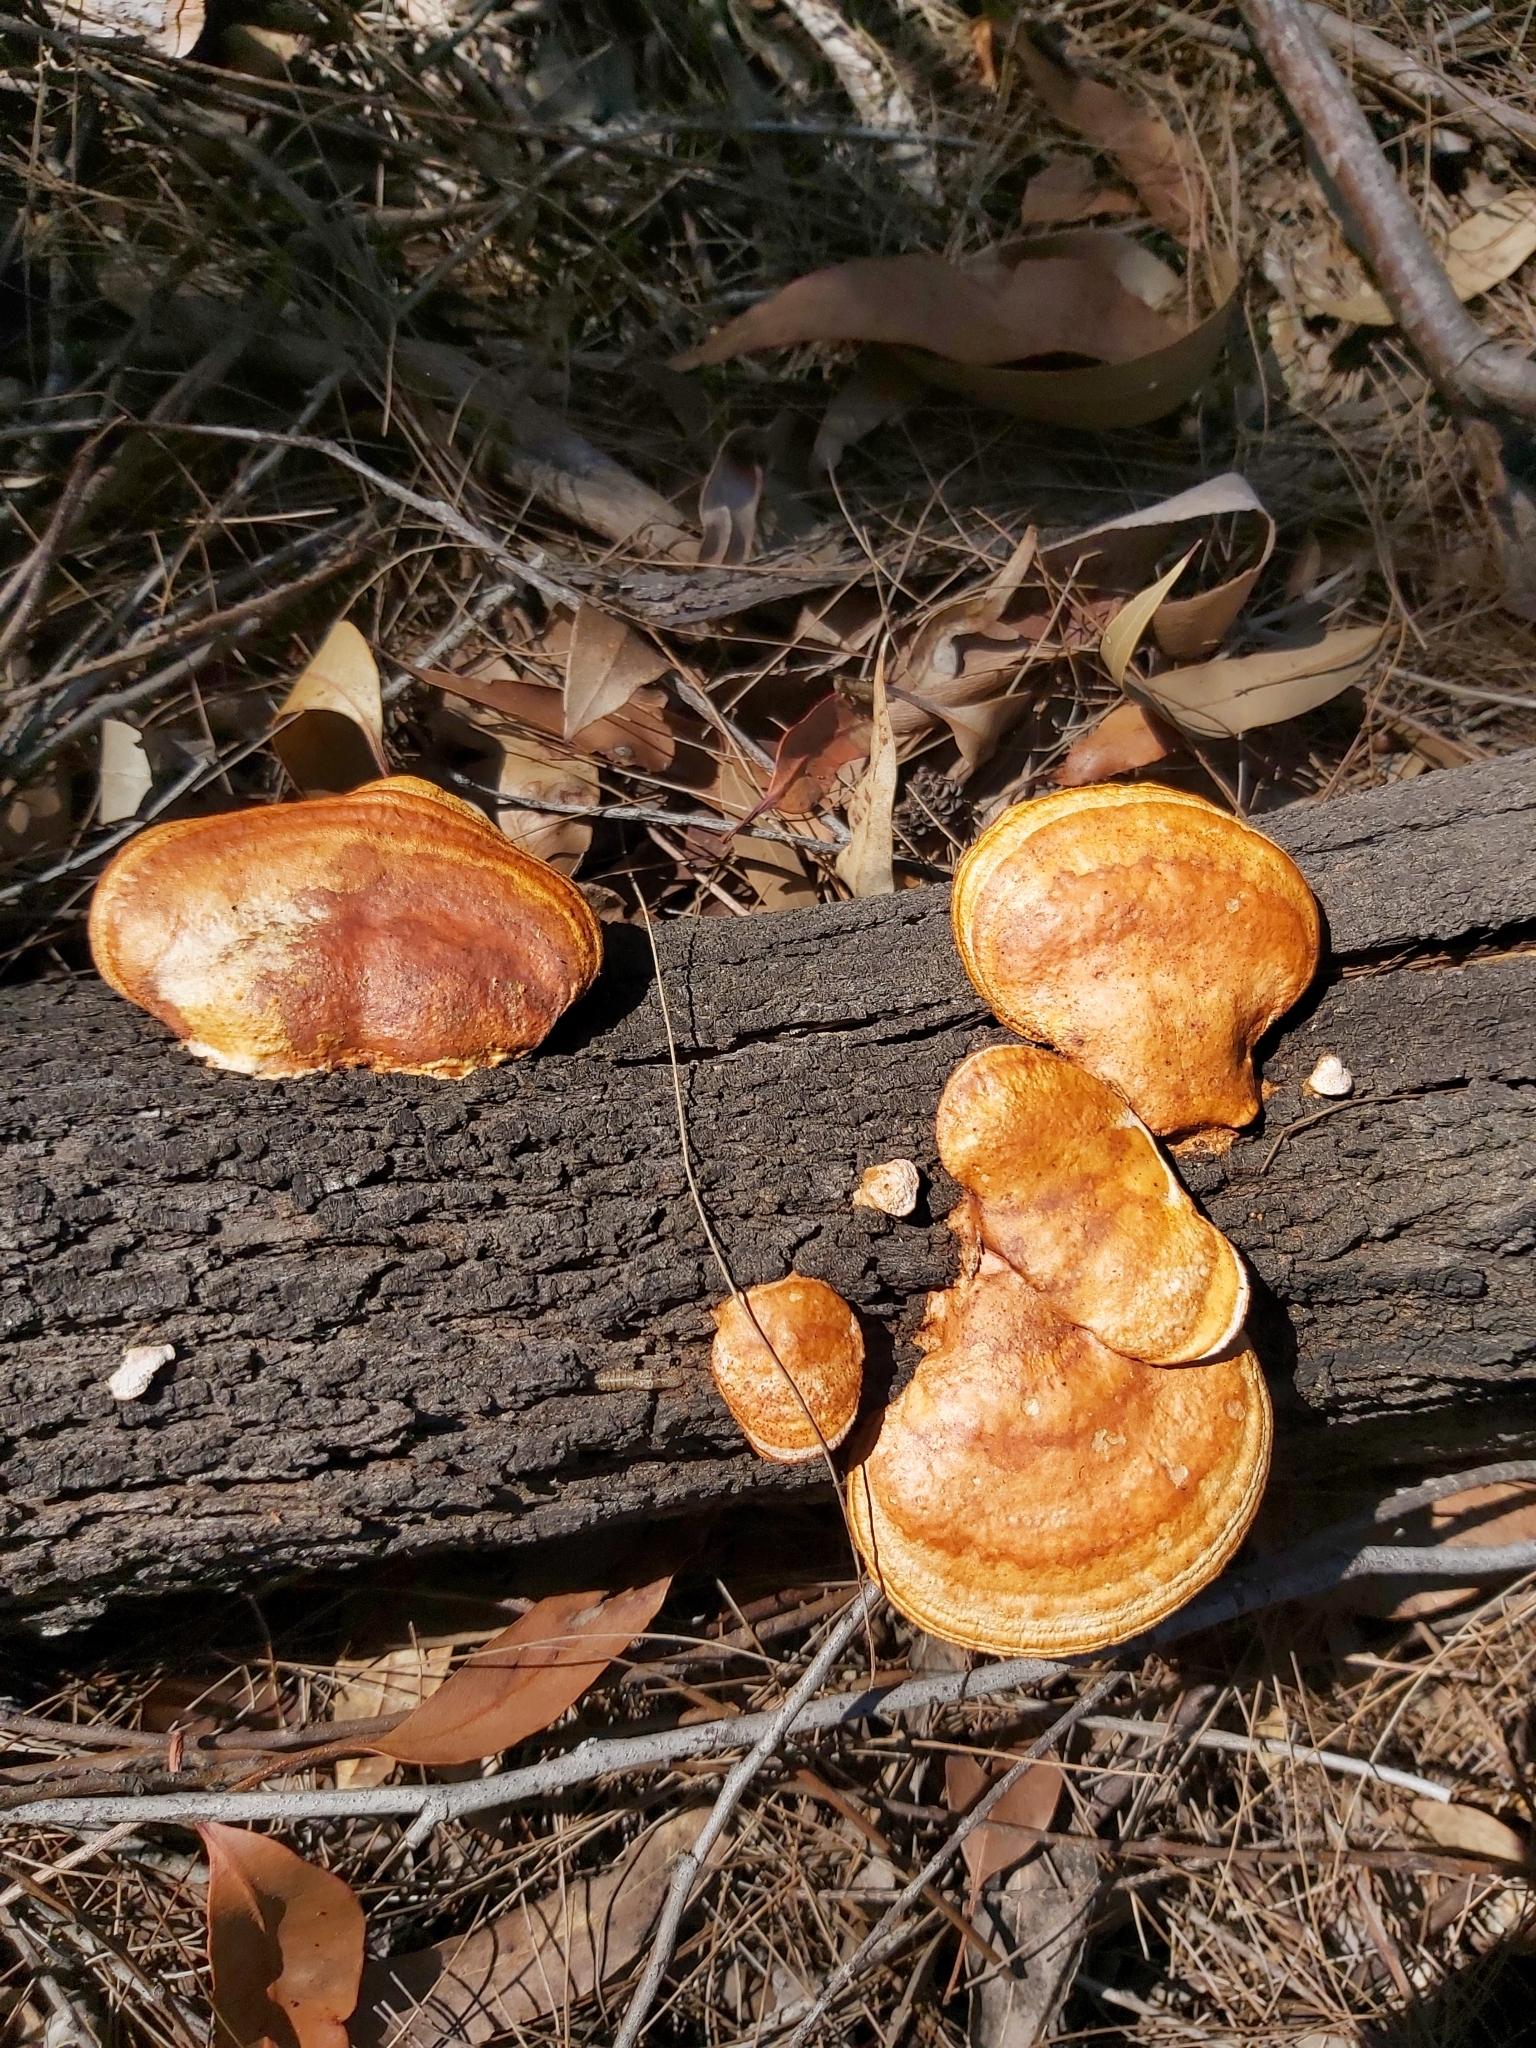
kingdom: Fungi
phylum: Basidiomycota
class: Agaricomycetes
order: Polyporales
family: Polyporaceae
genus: Trametes
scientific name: Trametes coccinea
